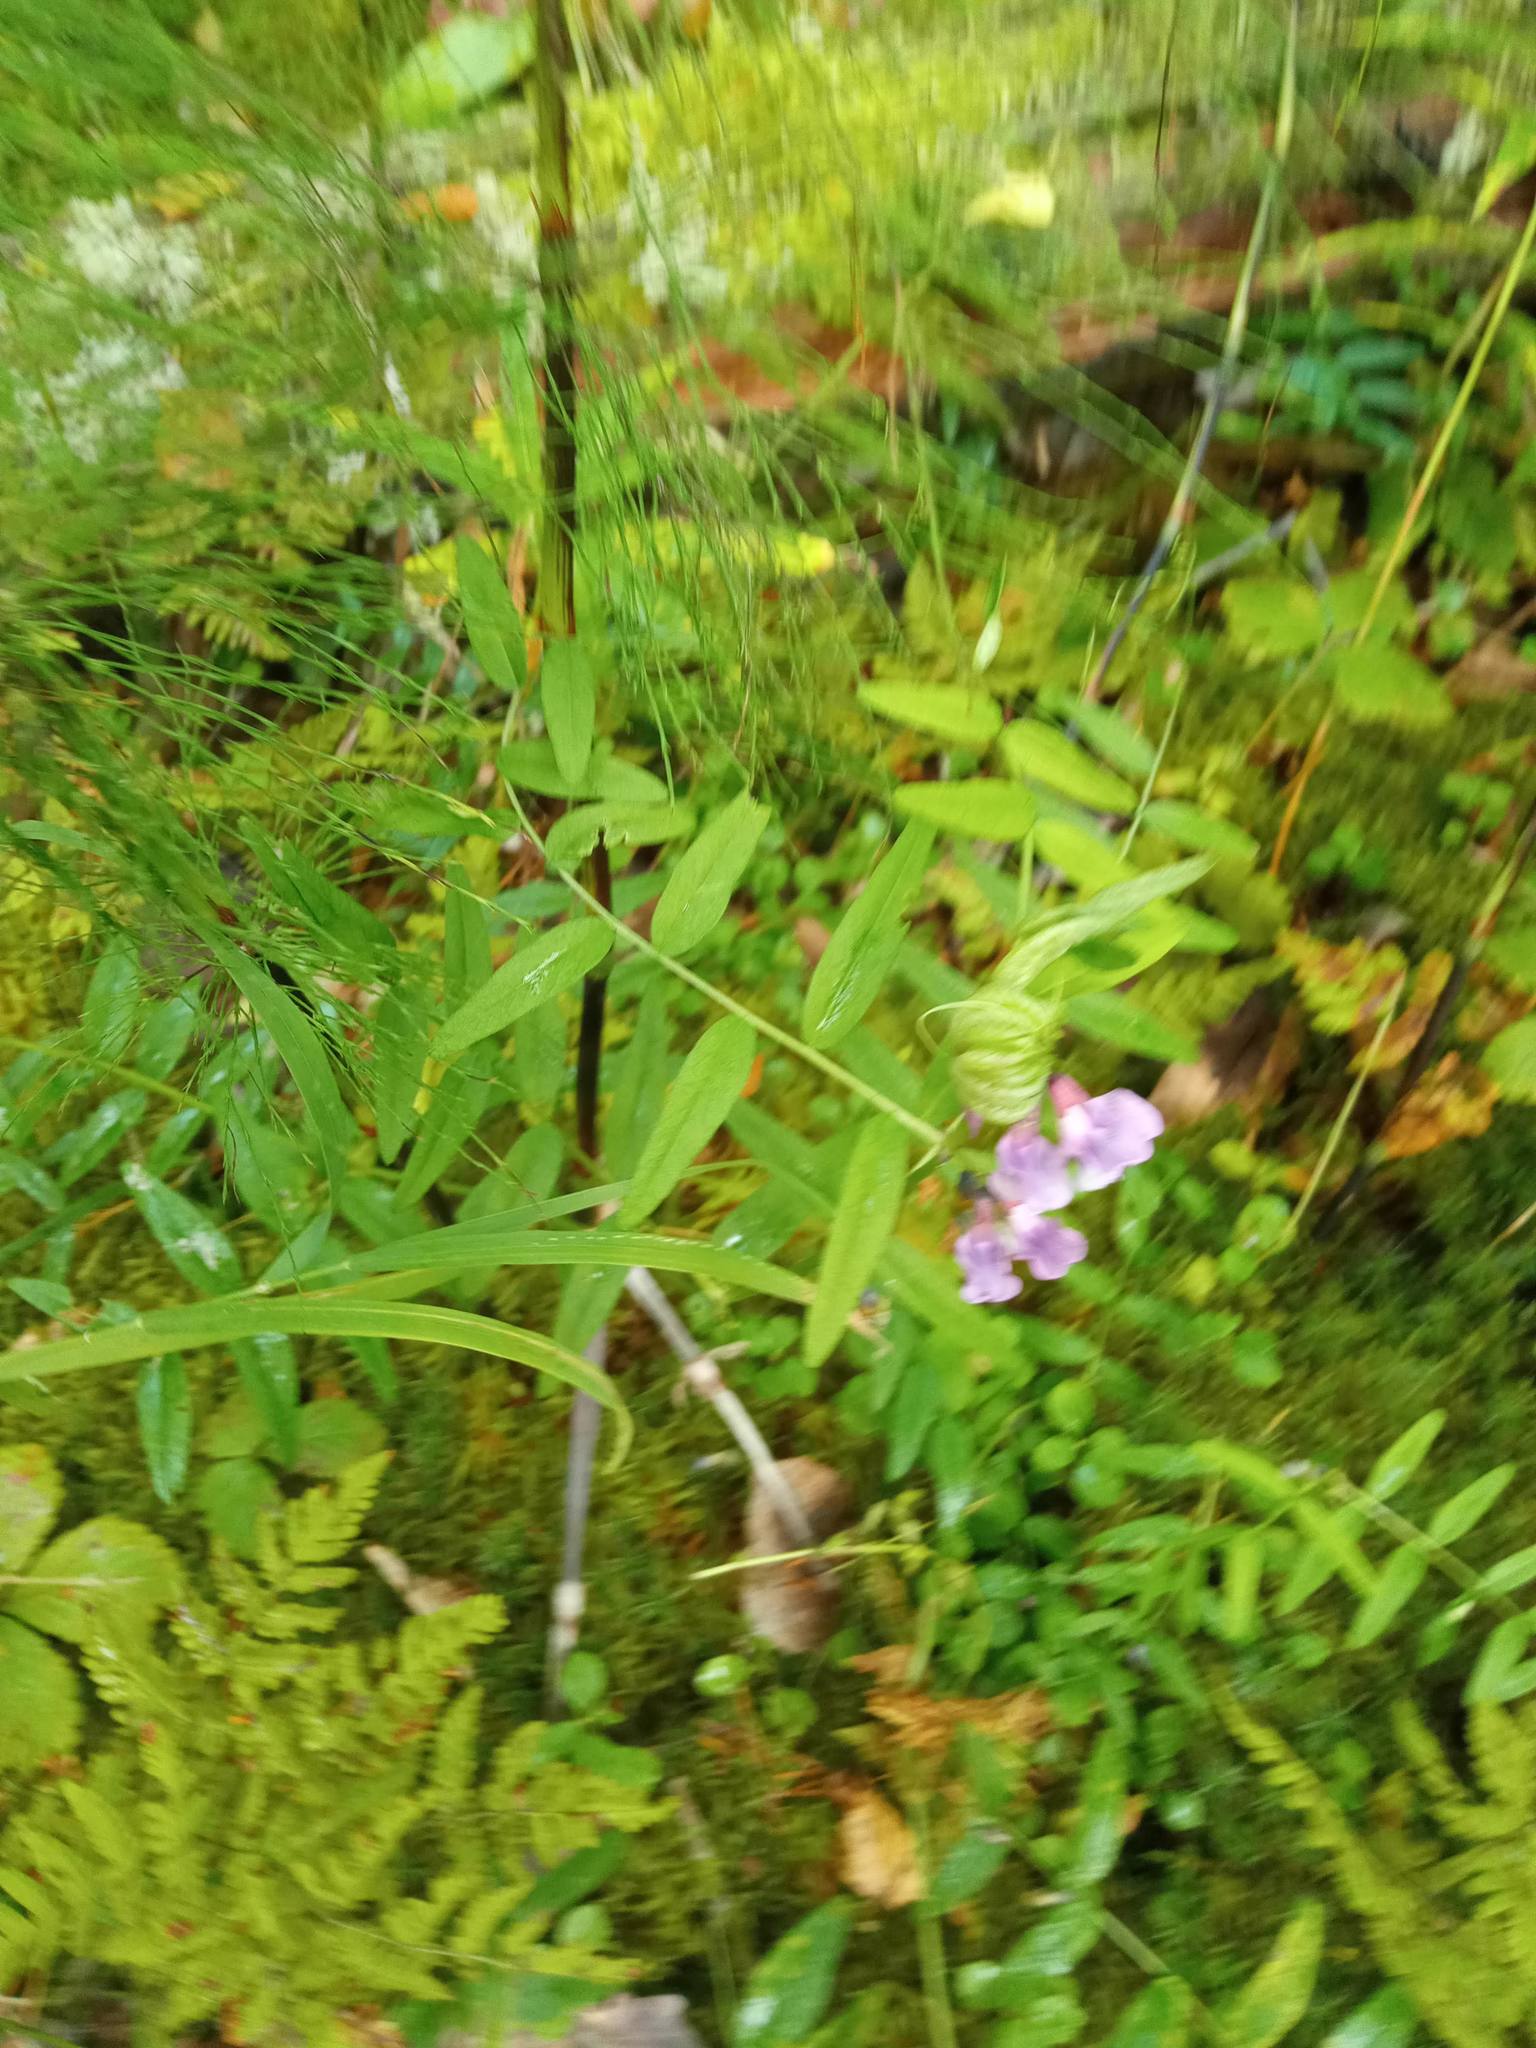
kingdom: Plantae
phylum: Tracheophyta
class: Magnoliopsida
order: Fabales
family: Fabaceae
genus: Vicia
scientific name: Vicia sepium
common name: Bush vetch
